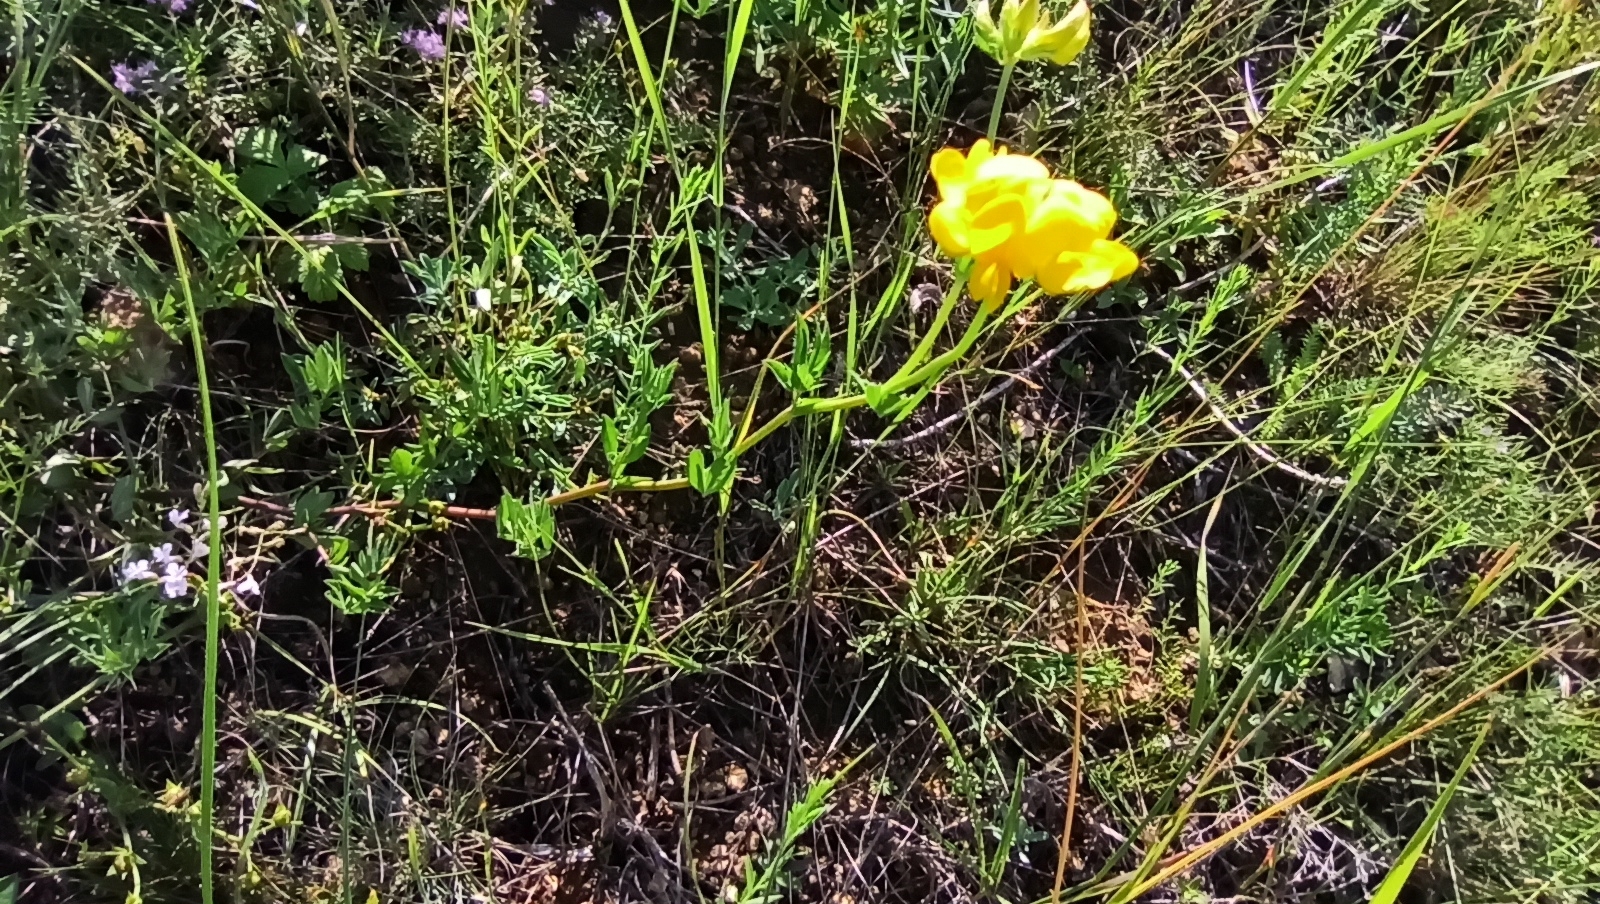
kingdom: Plantae
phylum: Tracheophyta
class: Magnoliopsida
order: Fabales
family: Fabaceae
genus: Lotus
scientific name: Lotus corniculatus
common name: Common bird's-foot-trefoil
